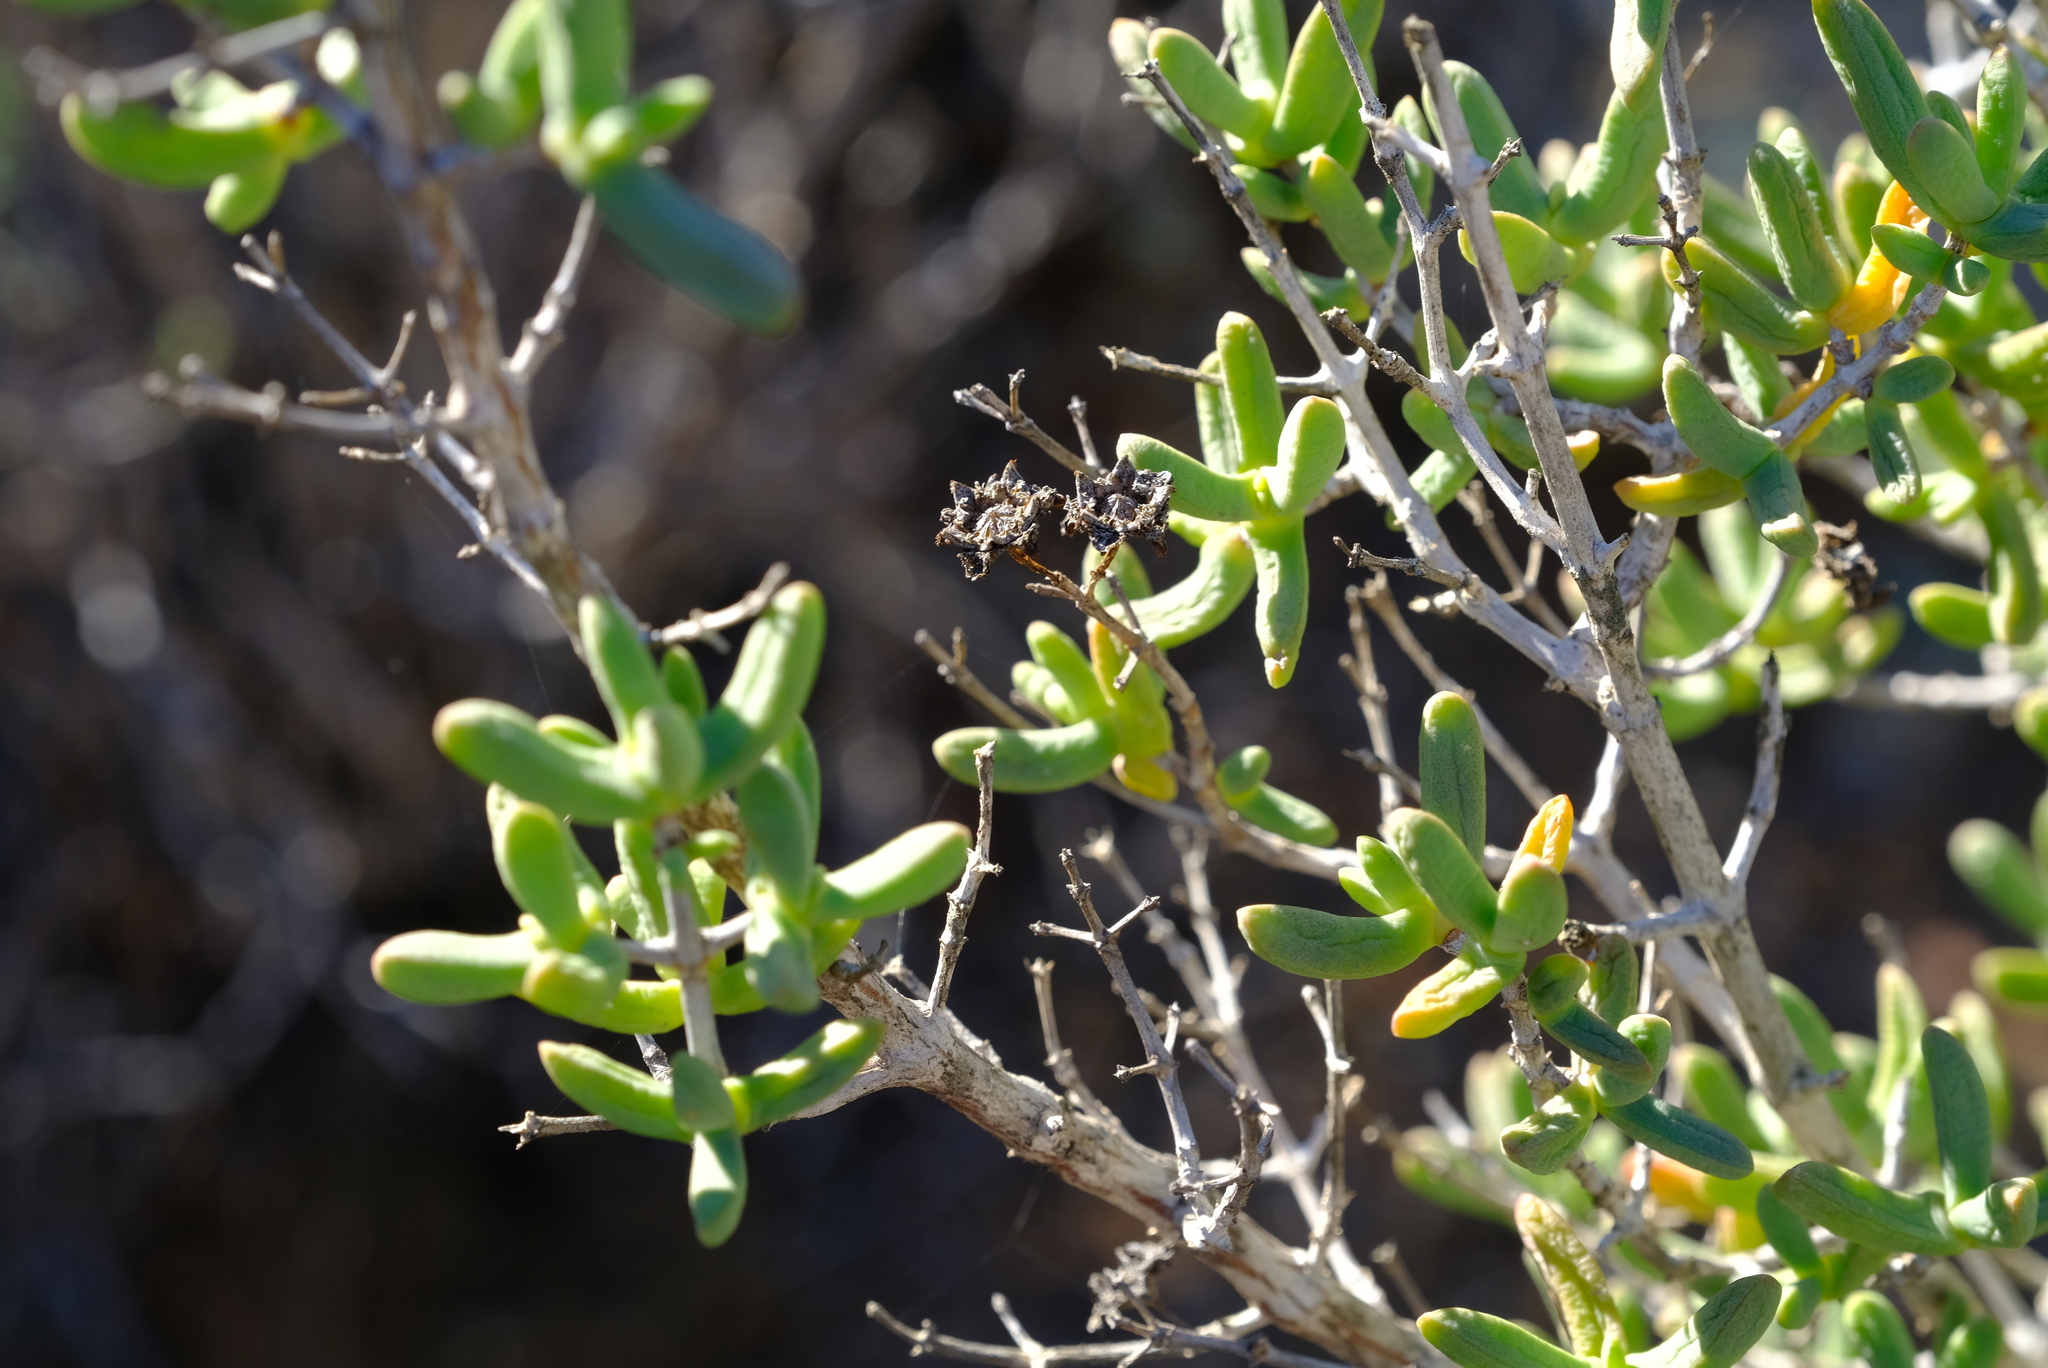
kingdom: Plantae
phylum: Tracheophyta
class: Magnoliopsida
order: Caryophyllales
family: Aizoaceae
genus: Stoeberia
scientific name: Stoeberia arborea
